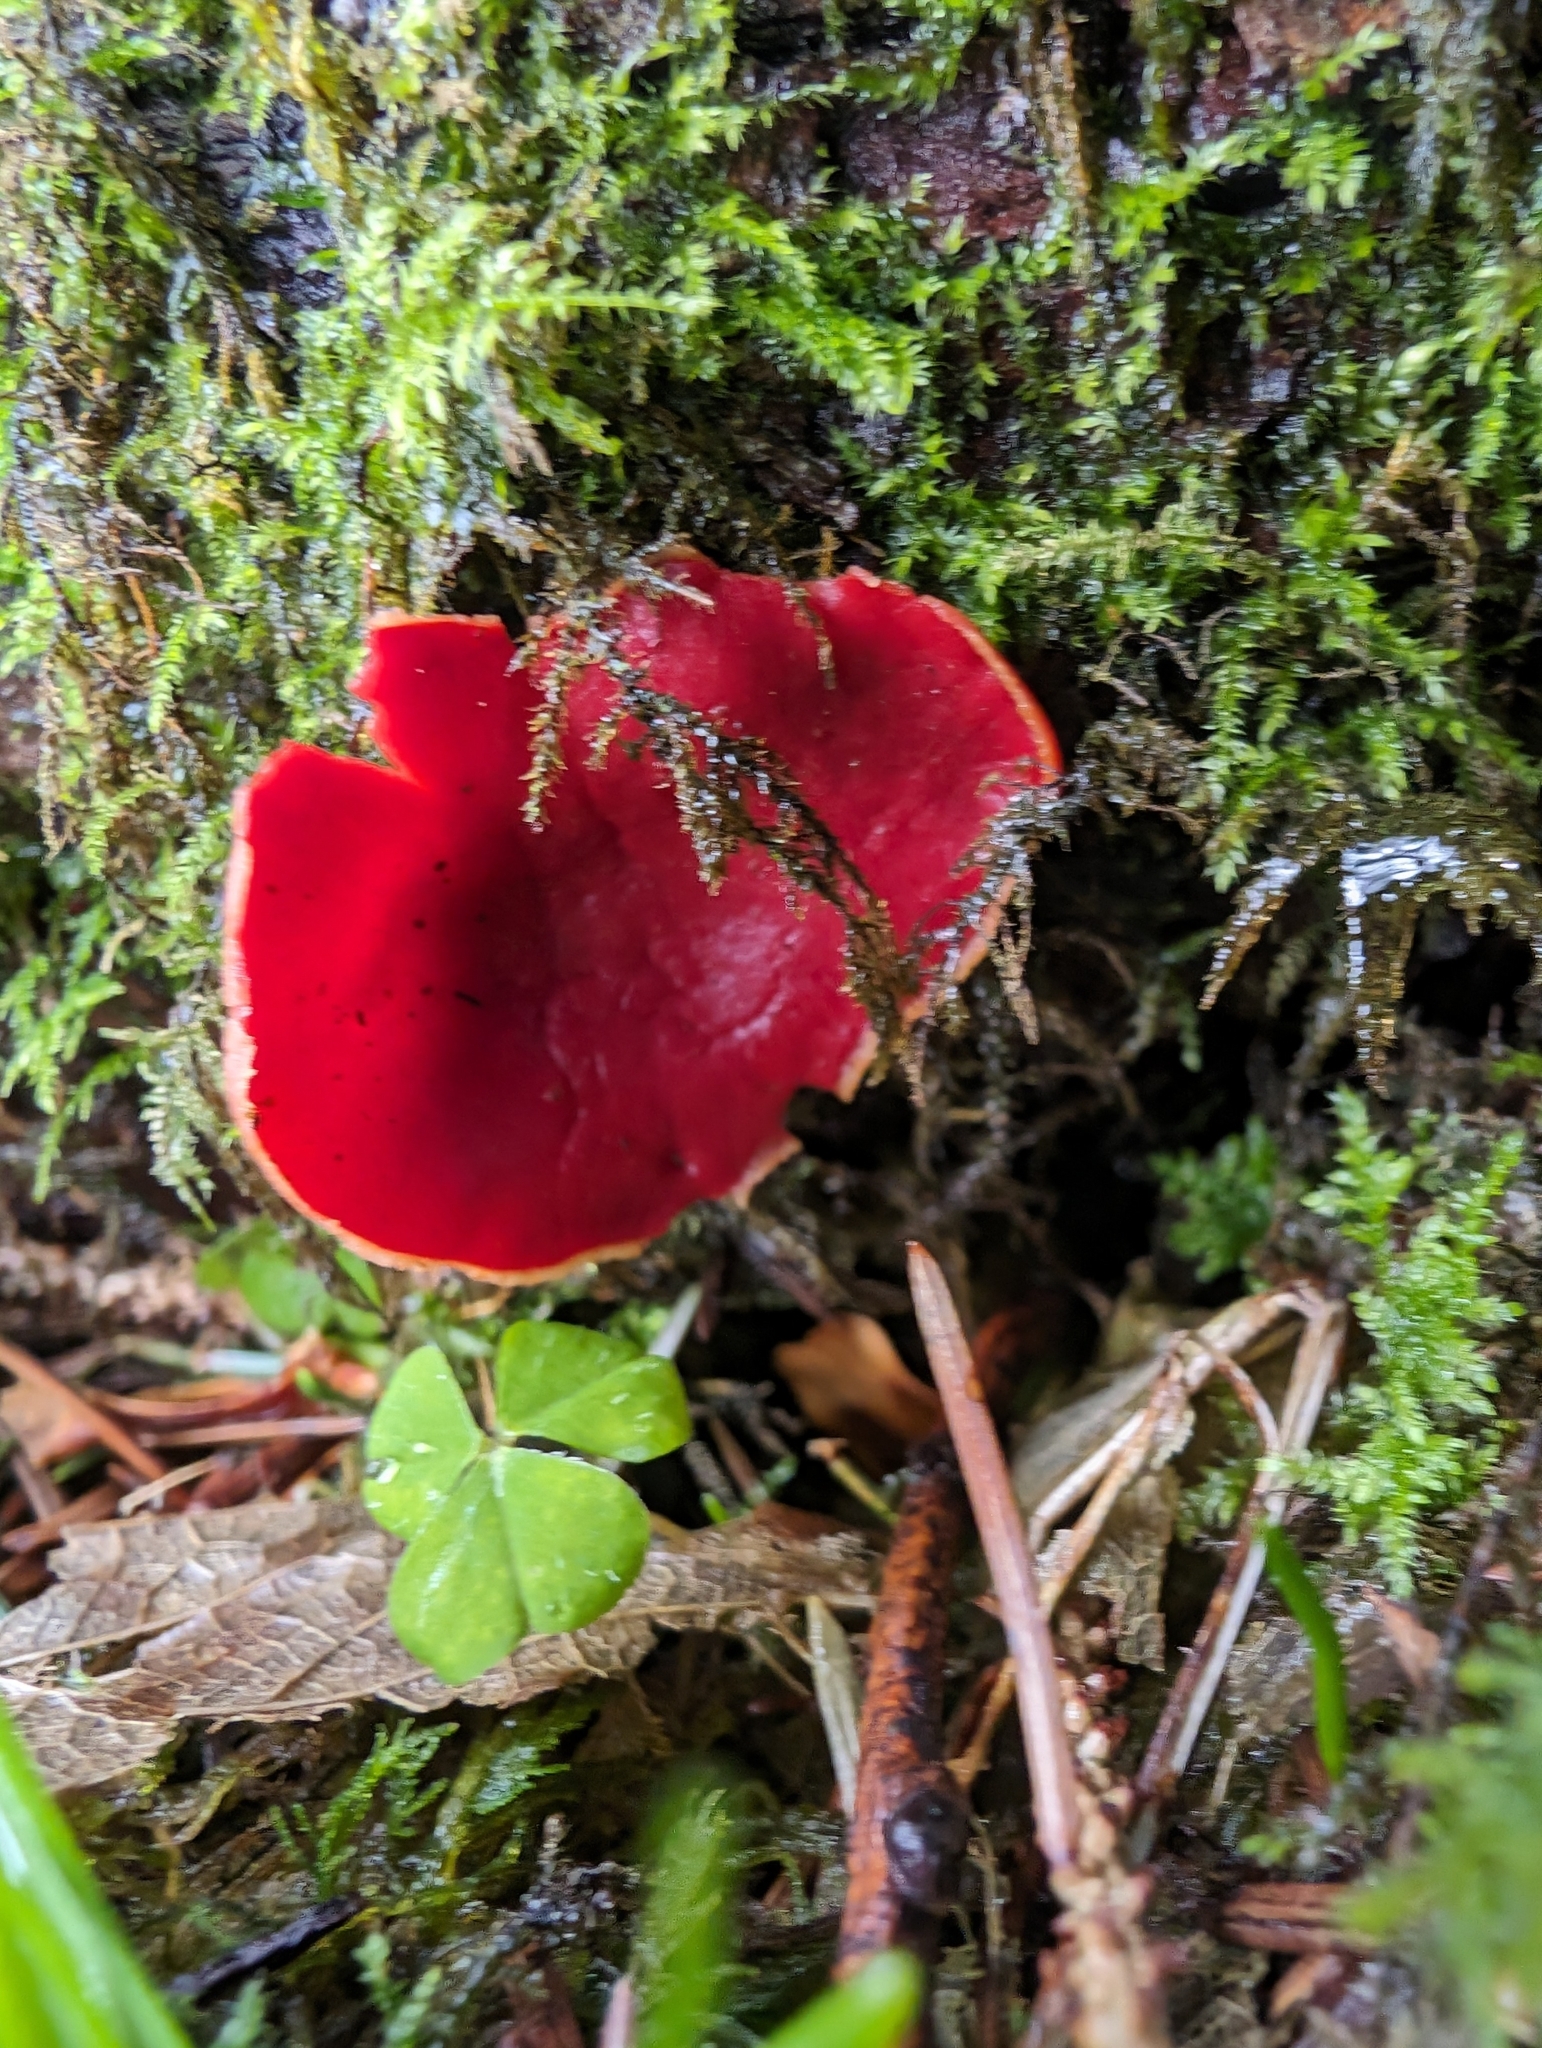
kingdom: Fungi
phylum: Ascomycota
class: Pezizomycetes
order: Pezizales
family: Sarcoscyphaceae
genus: Sarcoscypha
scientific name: Sarcoscypha
